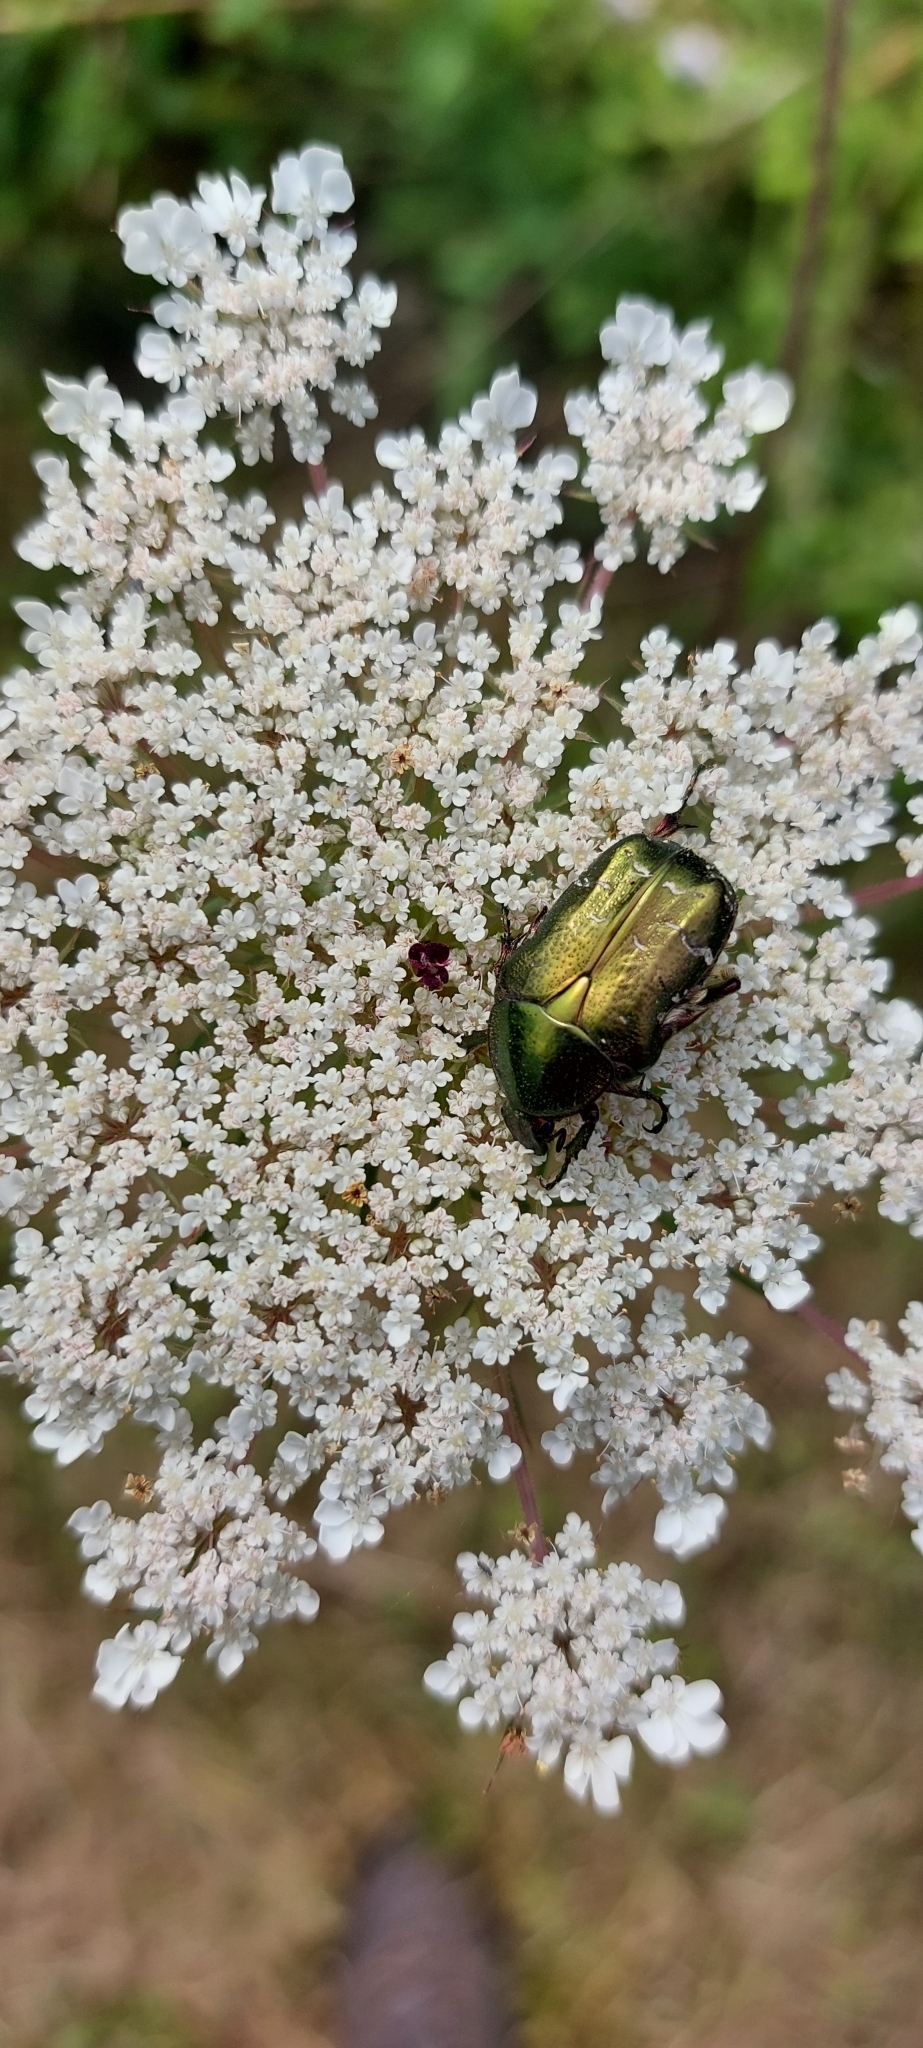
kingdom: Animalia
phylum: Arthropoda
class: Insecta
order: Coleoptera
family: Scarabaeidae
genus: Cetonia
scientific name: Cetonia aurata
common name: Rose chafer
